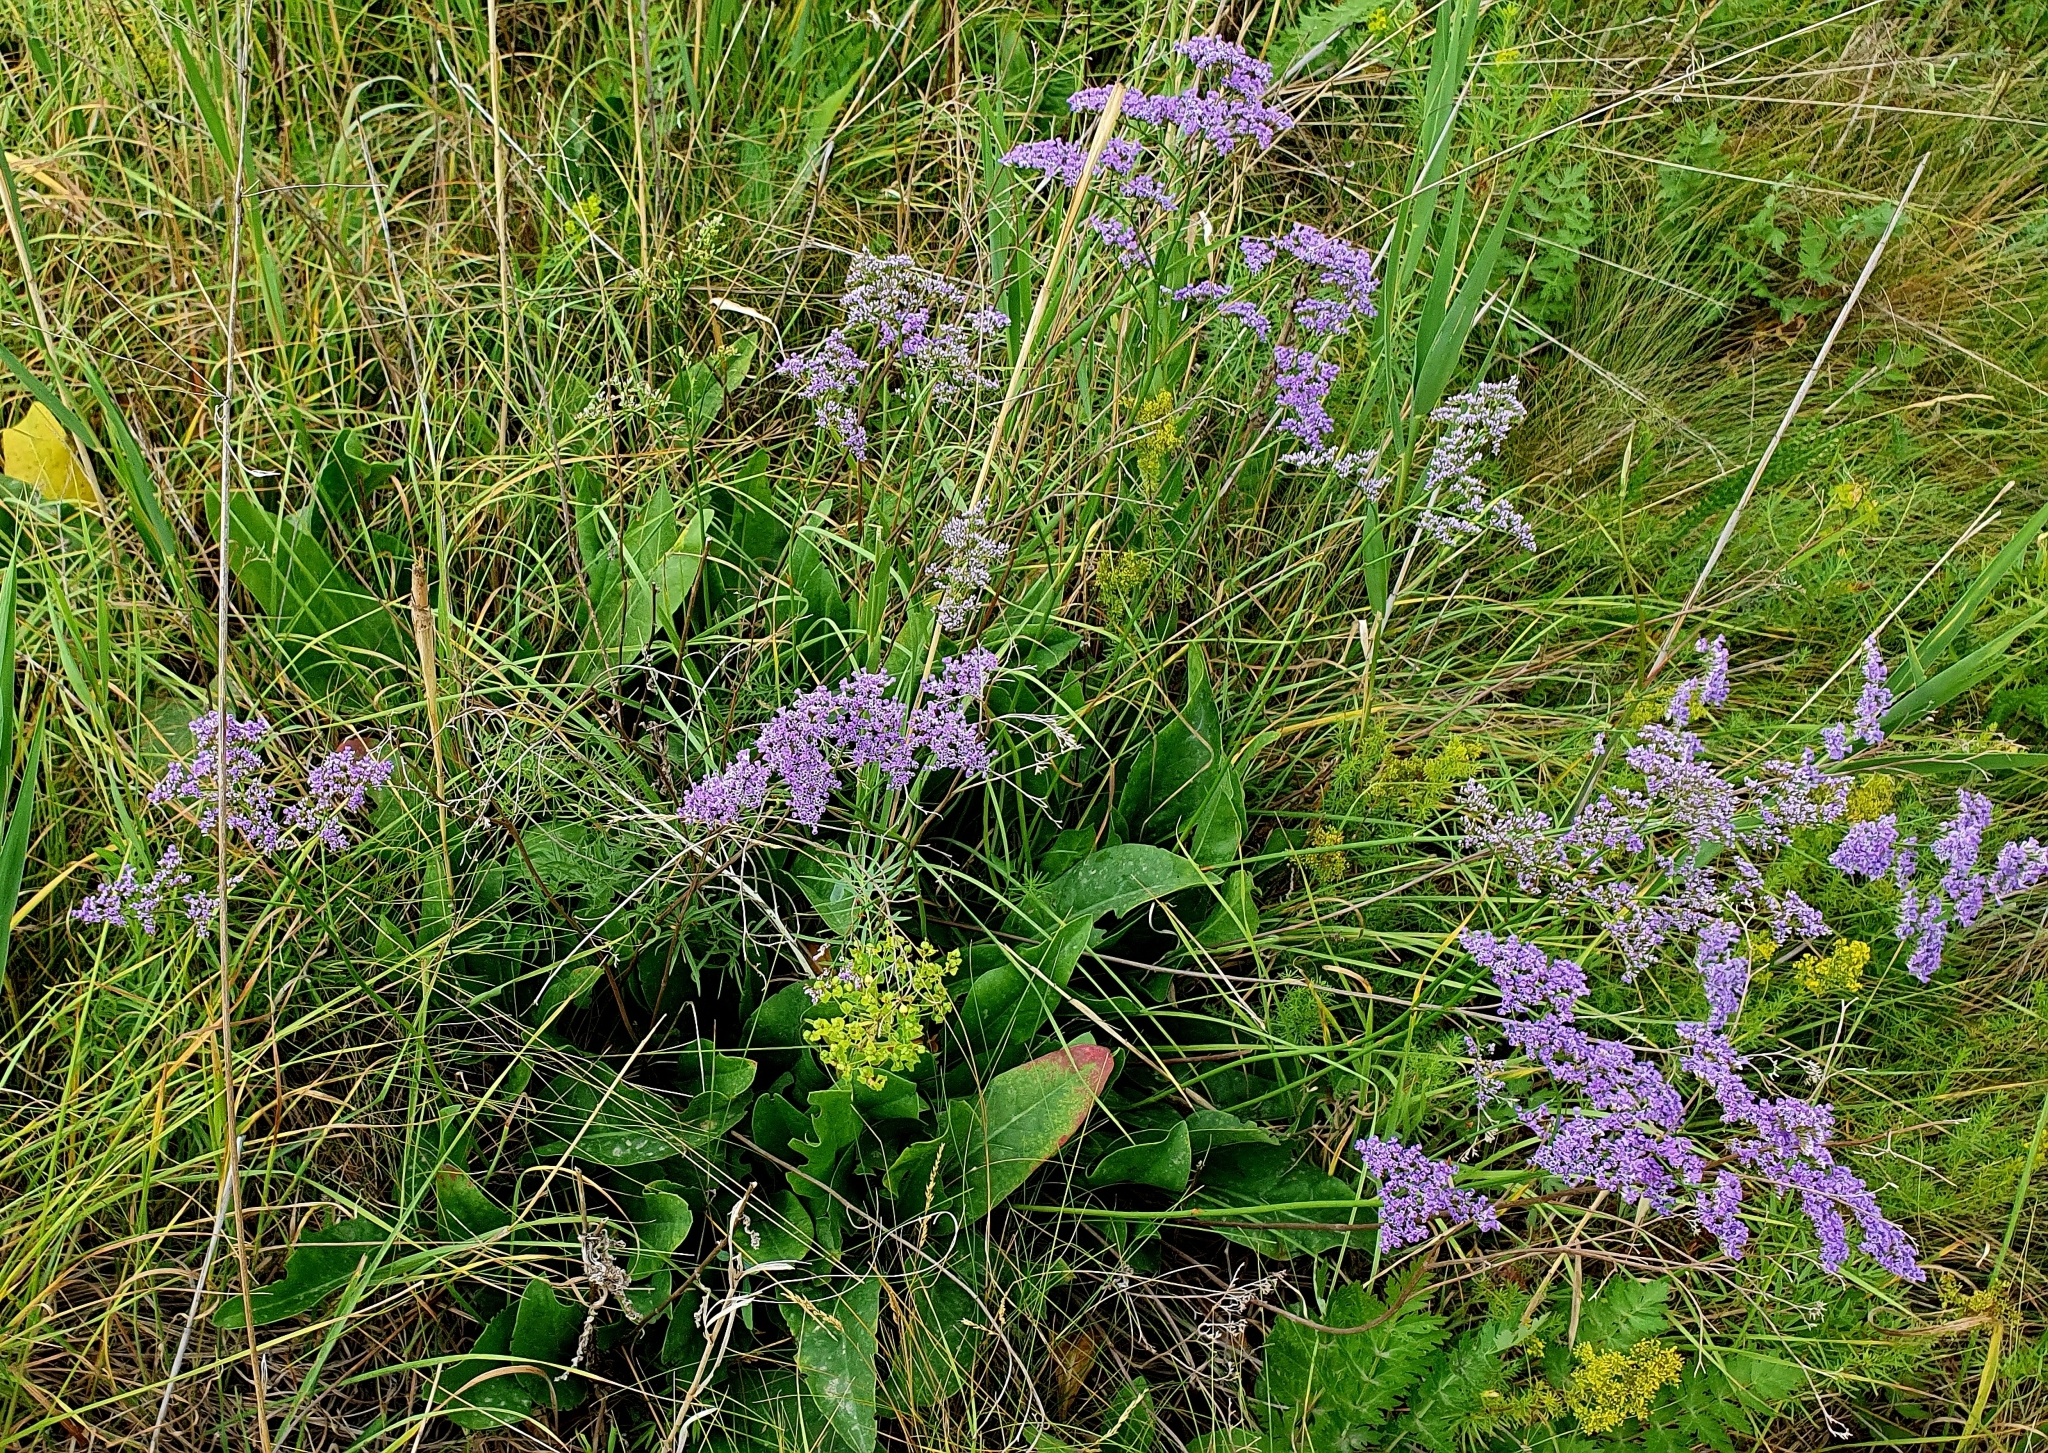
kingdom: Plantae
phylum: Tracheophyta
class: Magnoliopsida
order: Caryophyllales
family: Plumbaginaceae
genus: Limonium
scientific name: Limonium gmelini
